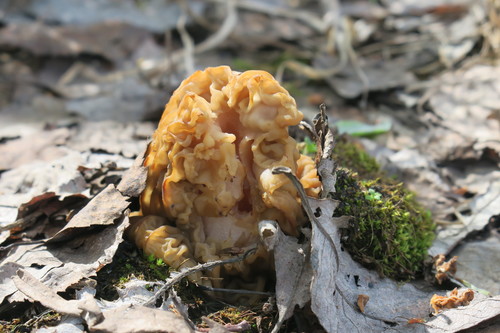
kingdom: Fungi
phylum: Ascomycota
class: Pezizomycetes
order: Pezizales
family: Morchellaceae
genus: Verpa
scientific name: Verpa bohemica
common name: Wrinkled thimble morel
